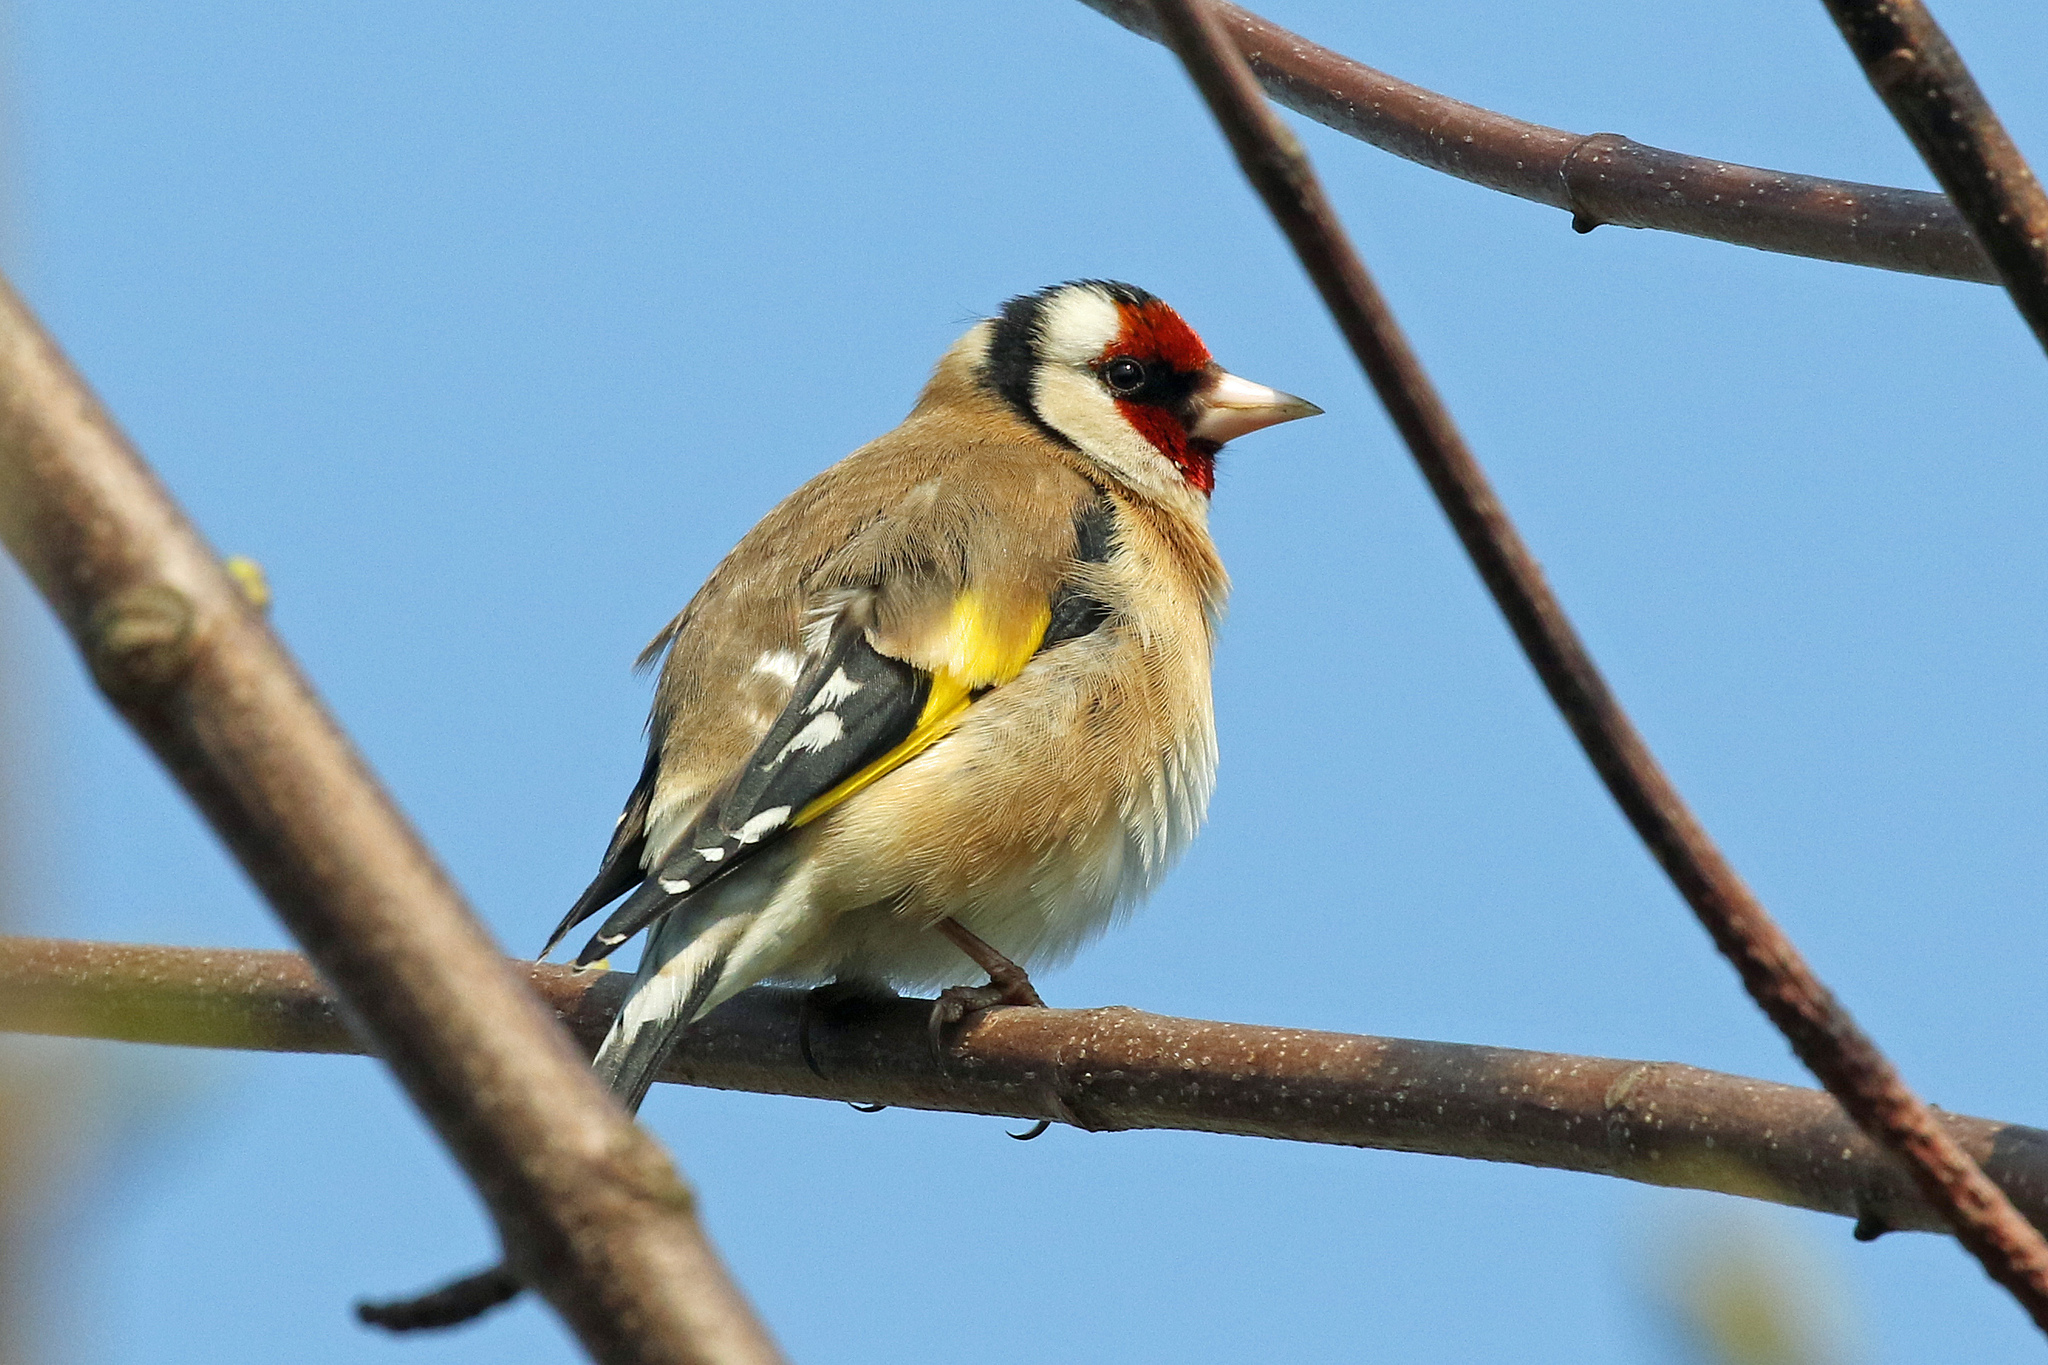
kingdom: Animalia
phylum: Chordata
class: Aves
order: Passeriformes
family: Fringillidae
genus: Carduelis
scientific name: Carduelis carduelis
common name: European goldfinch
